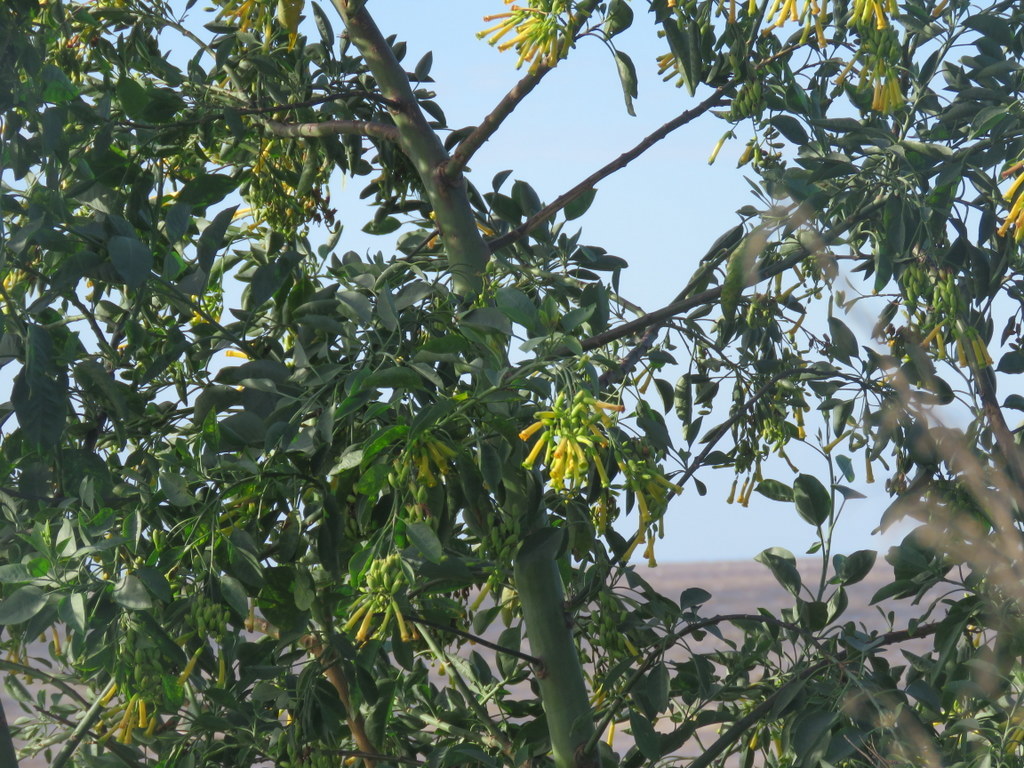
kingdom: Plantae
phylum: Tracheophyta
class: Magnoliopsida
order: Solanales
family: Solanaceae
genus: Nicotiana
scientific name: Nicotiana glauca
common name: Tree tobacco
